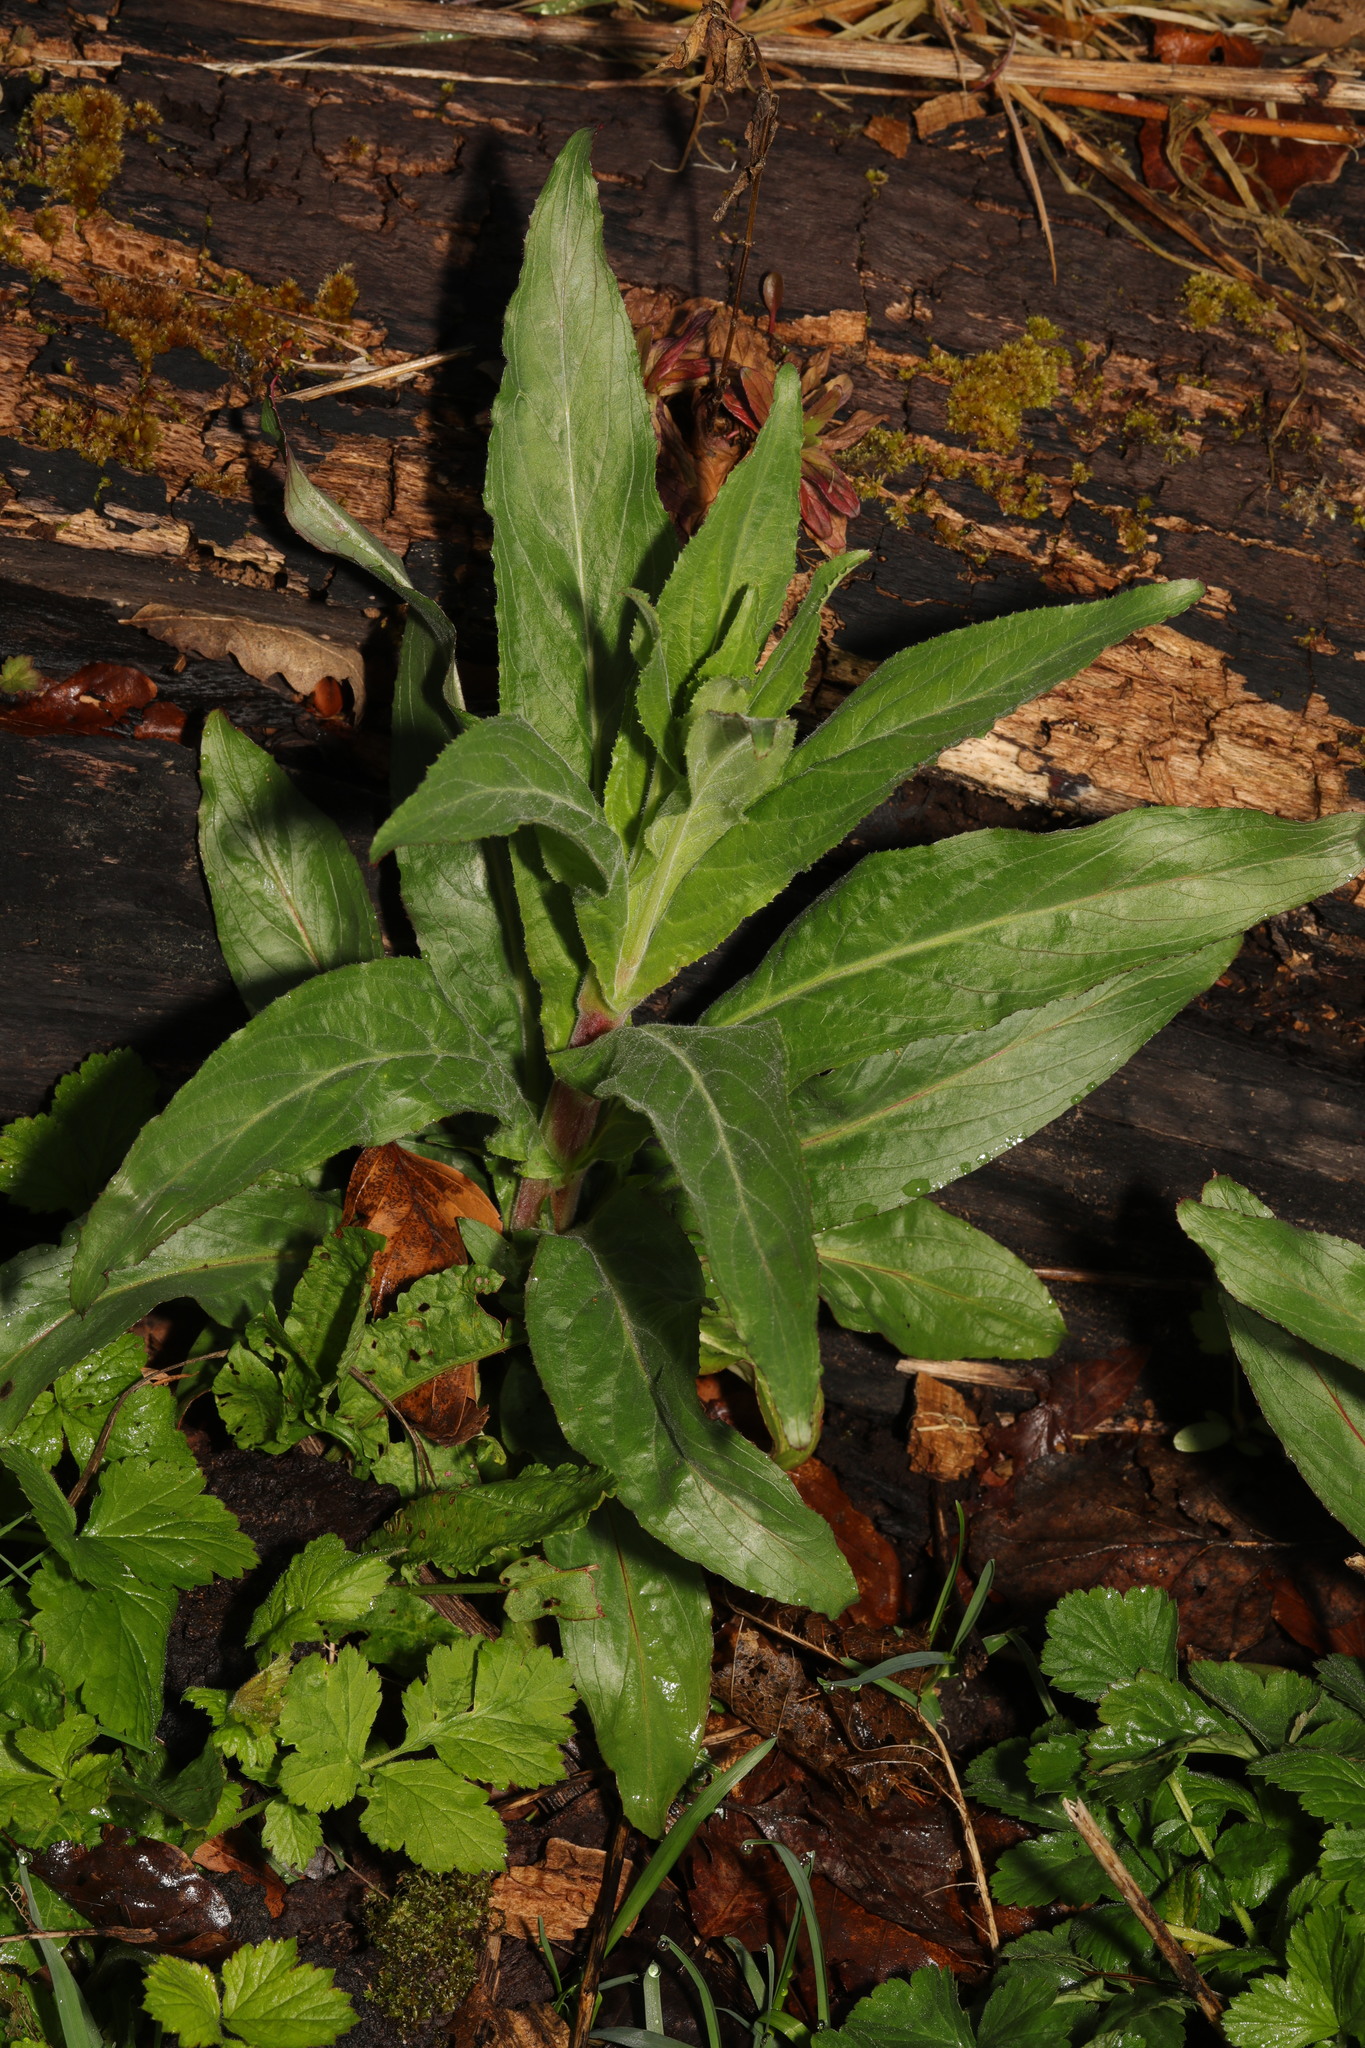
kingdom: Plantae
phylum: Tracheophyta
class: Magnoliopsida
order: Myrtales
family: Onagraceae
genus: Epilobium
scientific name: Epilobium hirsutum
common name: Great willowherb
